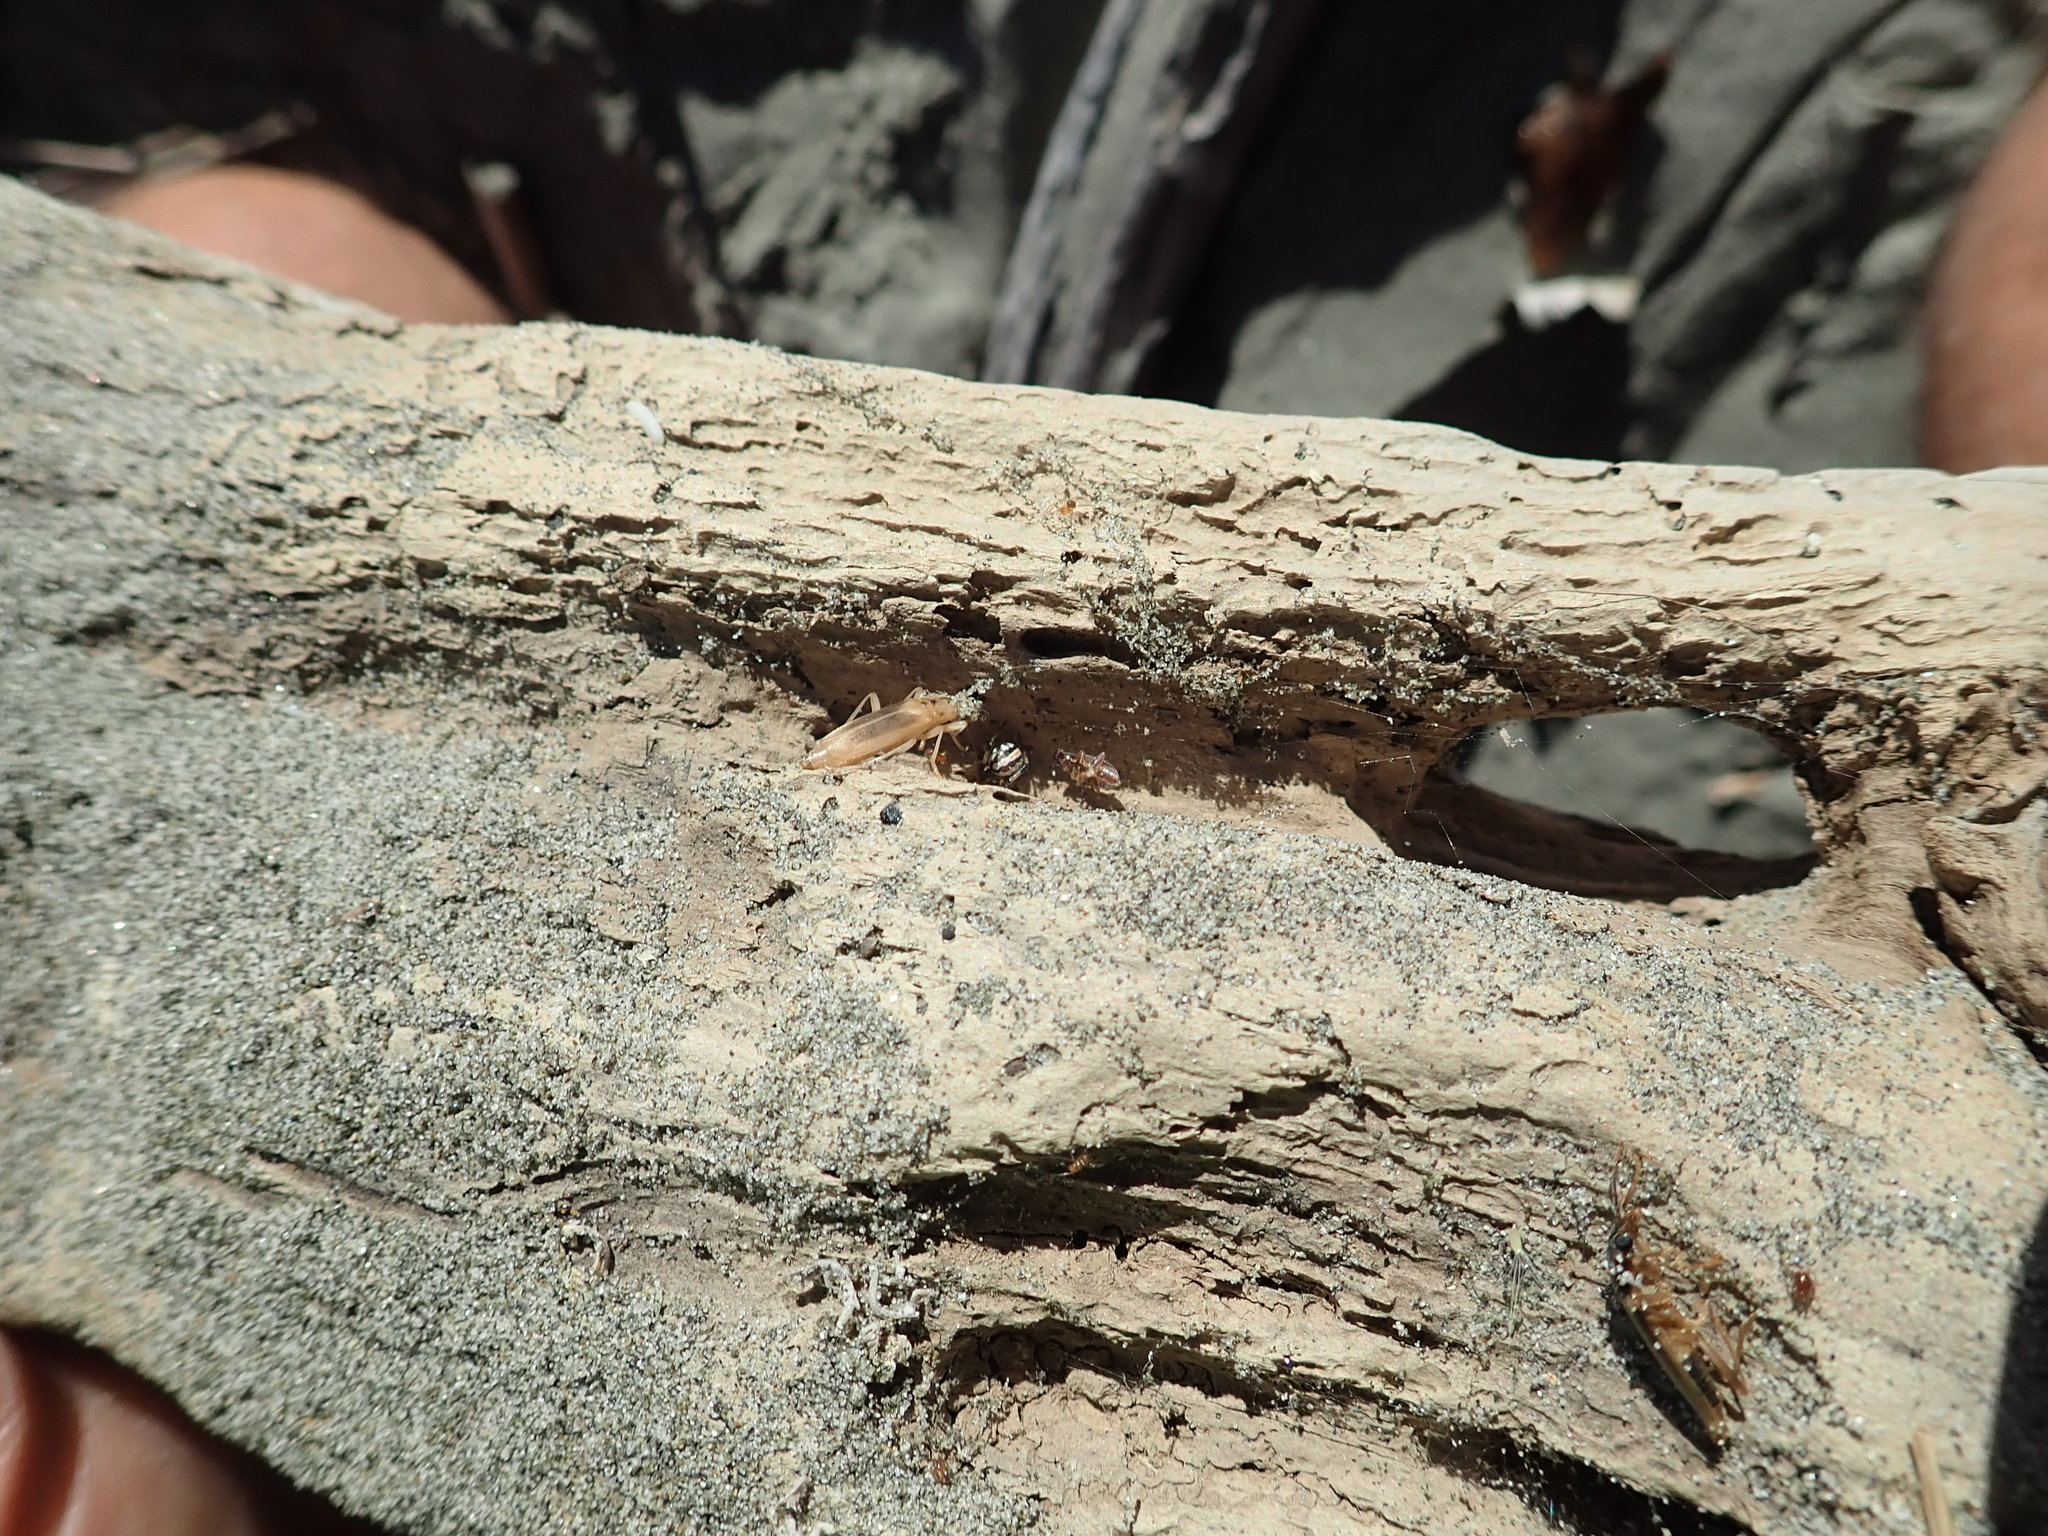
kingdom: Animalia
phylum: Arthropoda
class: Arachnida
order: Araneae
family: Theridiidae
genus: Latrodectus
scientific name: Latrodectus katipo
